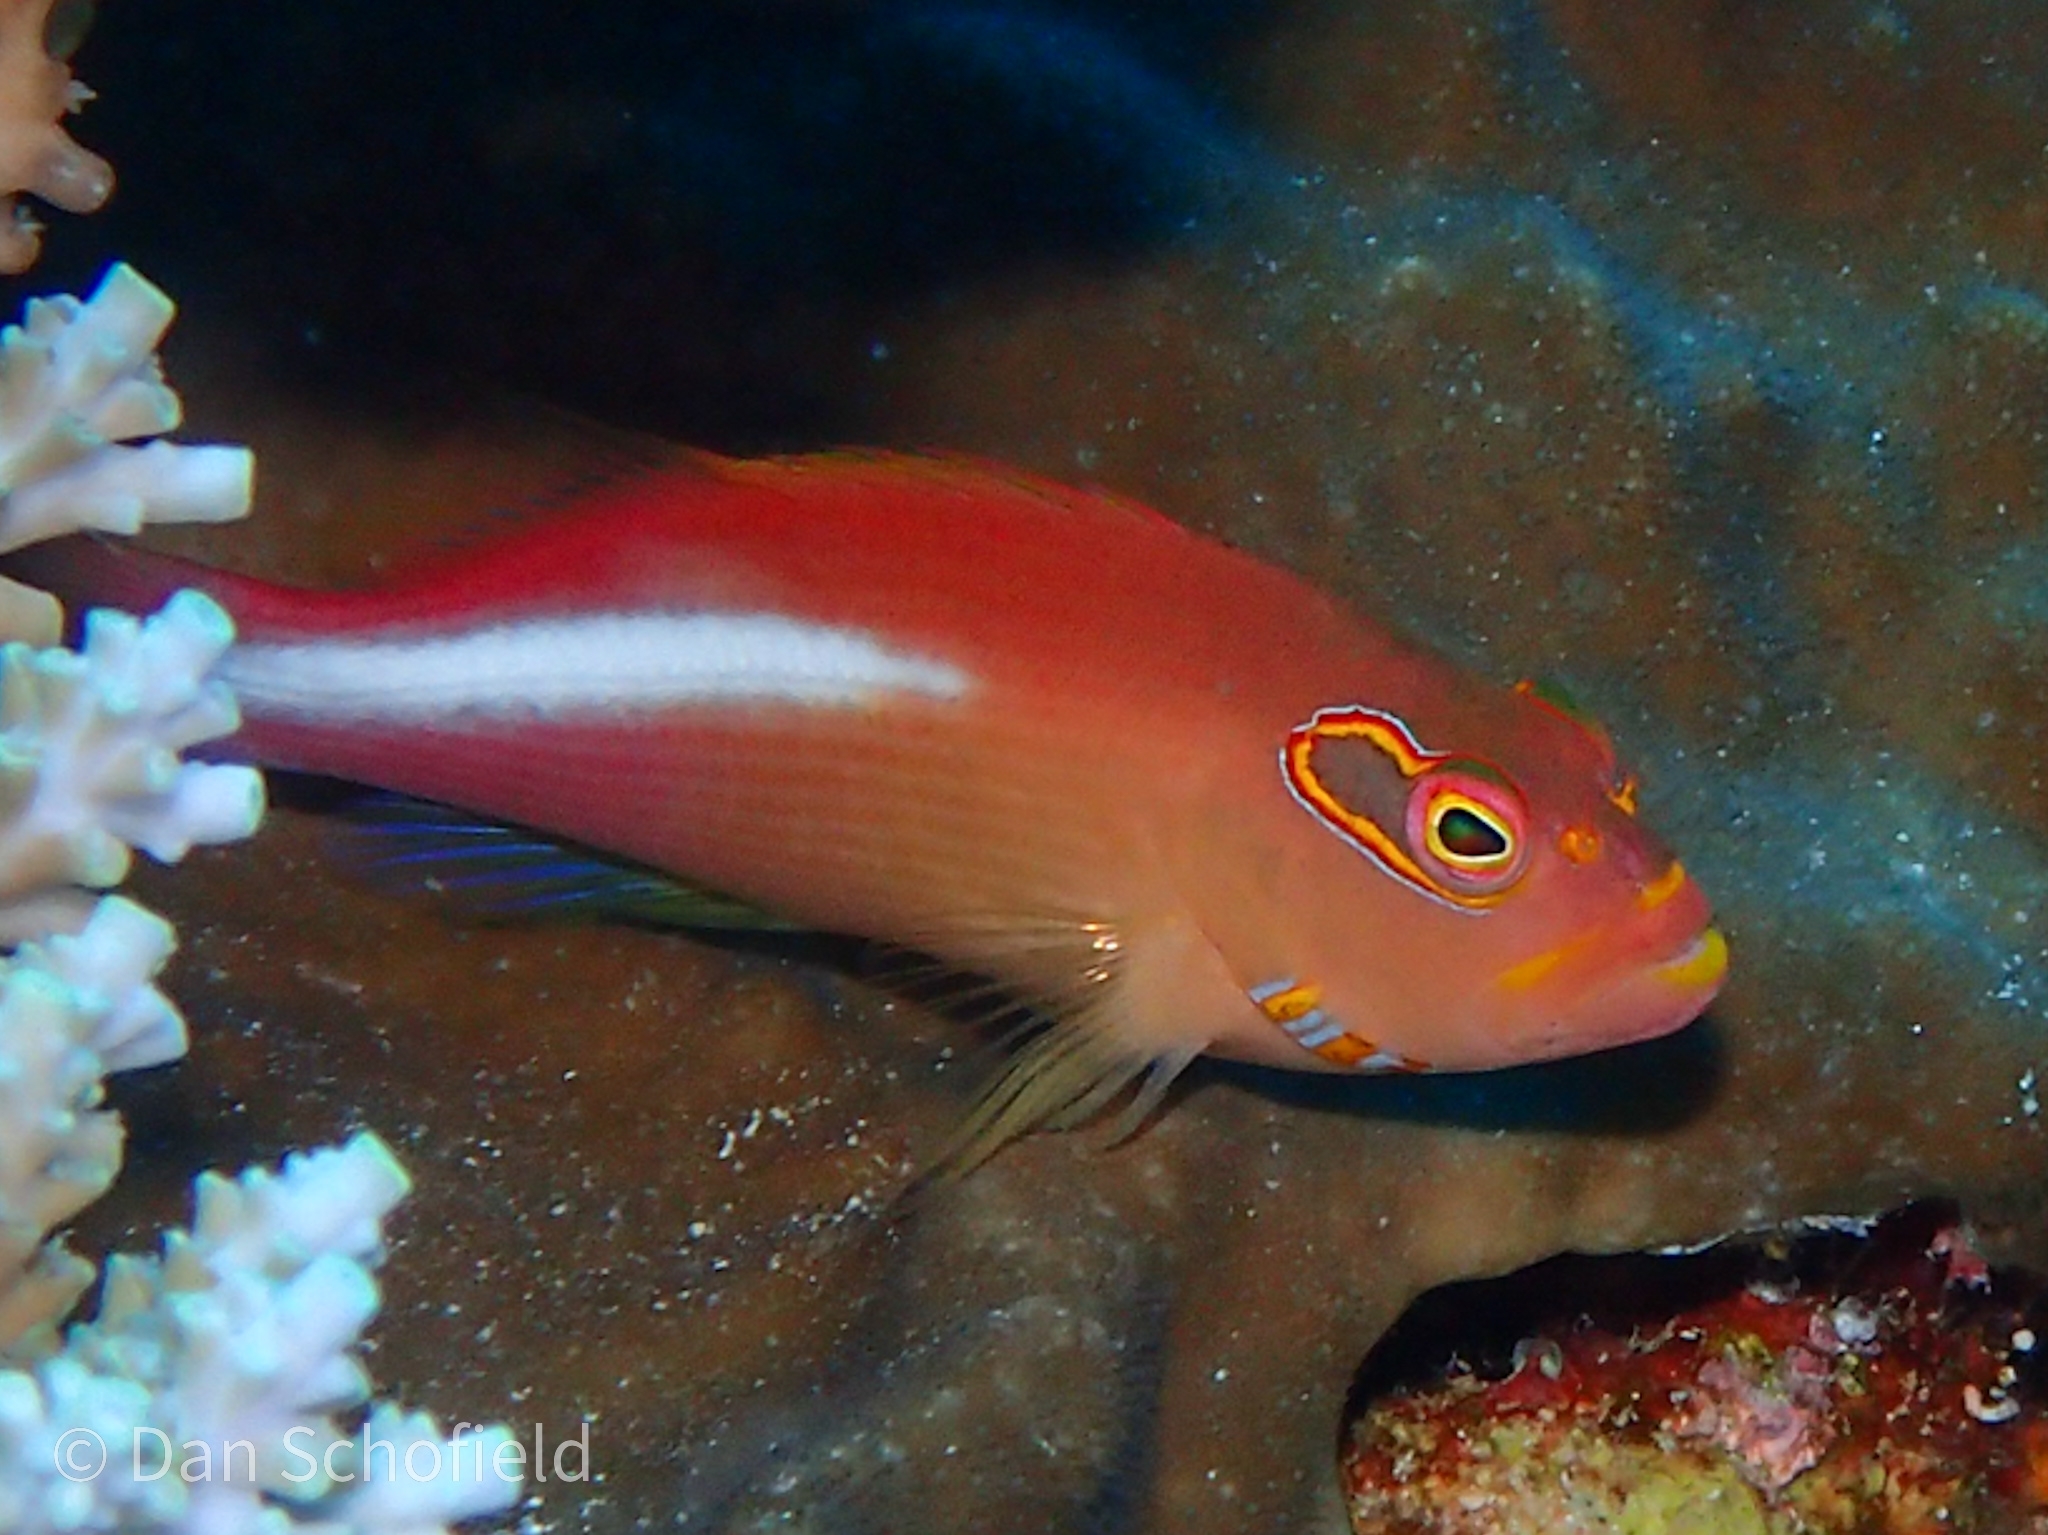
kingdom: Animalia
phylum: Chordata
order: Perciformes
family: Cirrhitidae
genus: Paracirrhites
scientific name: Paracirrhites arcatus
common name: Arc-eye hawkfish
